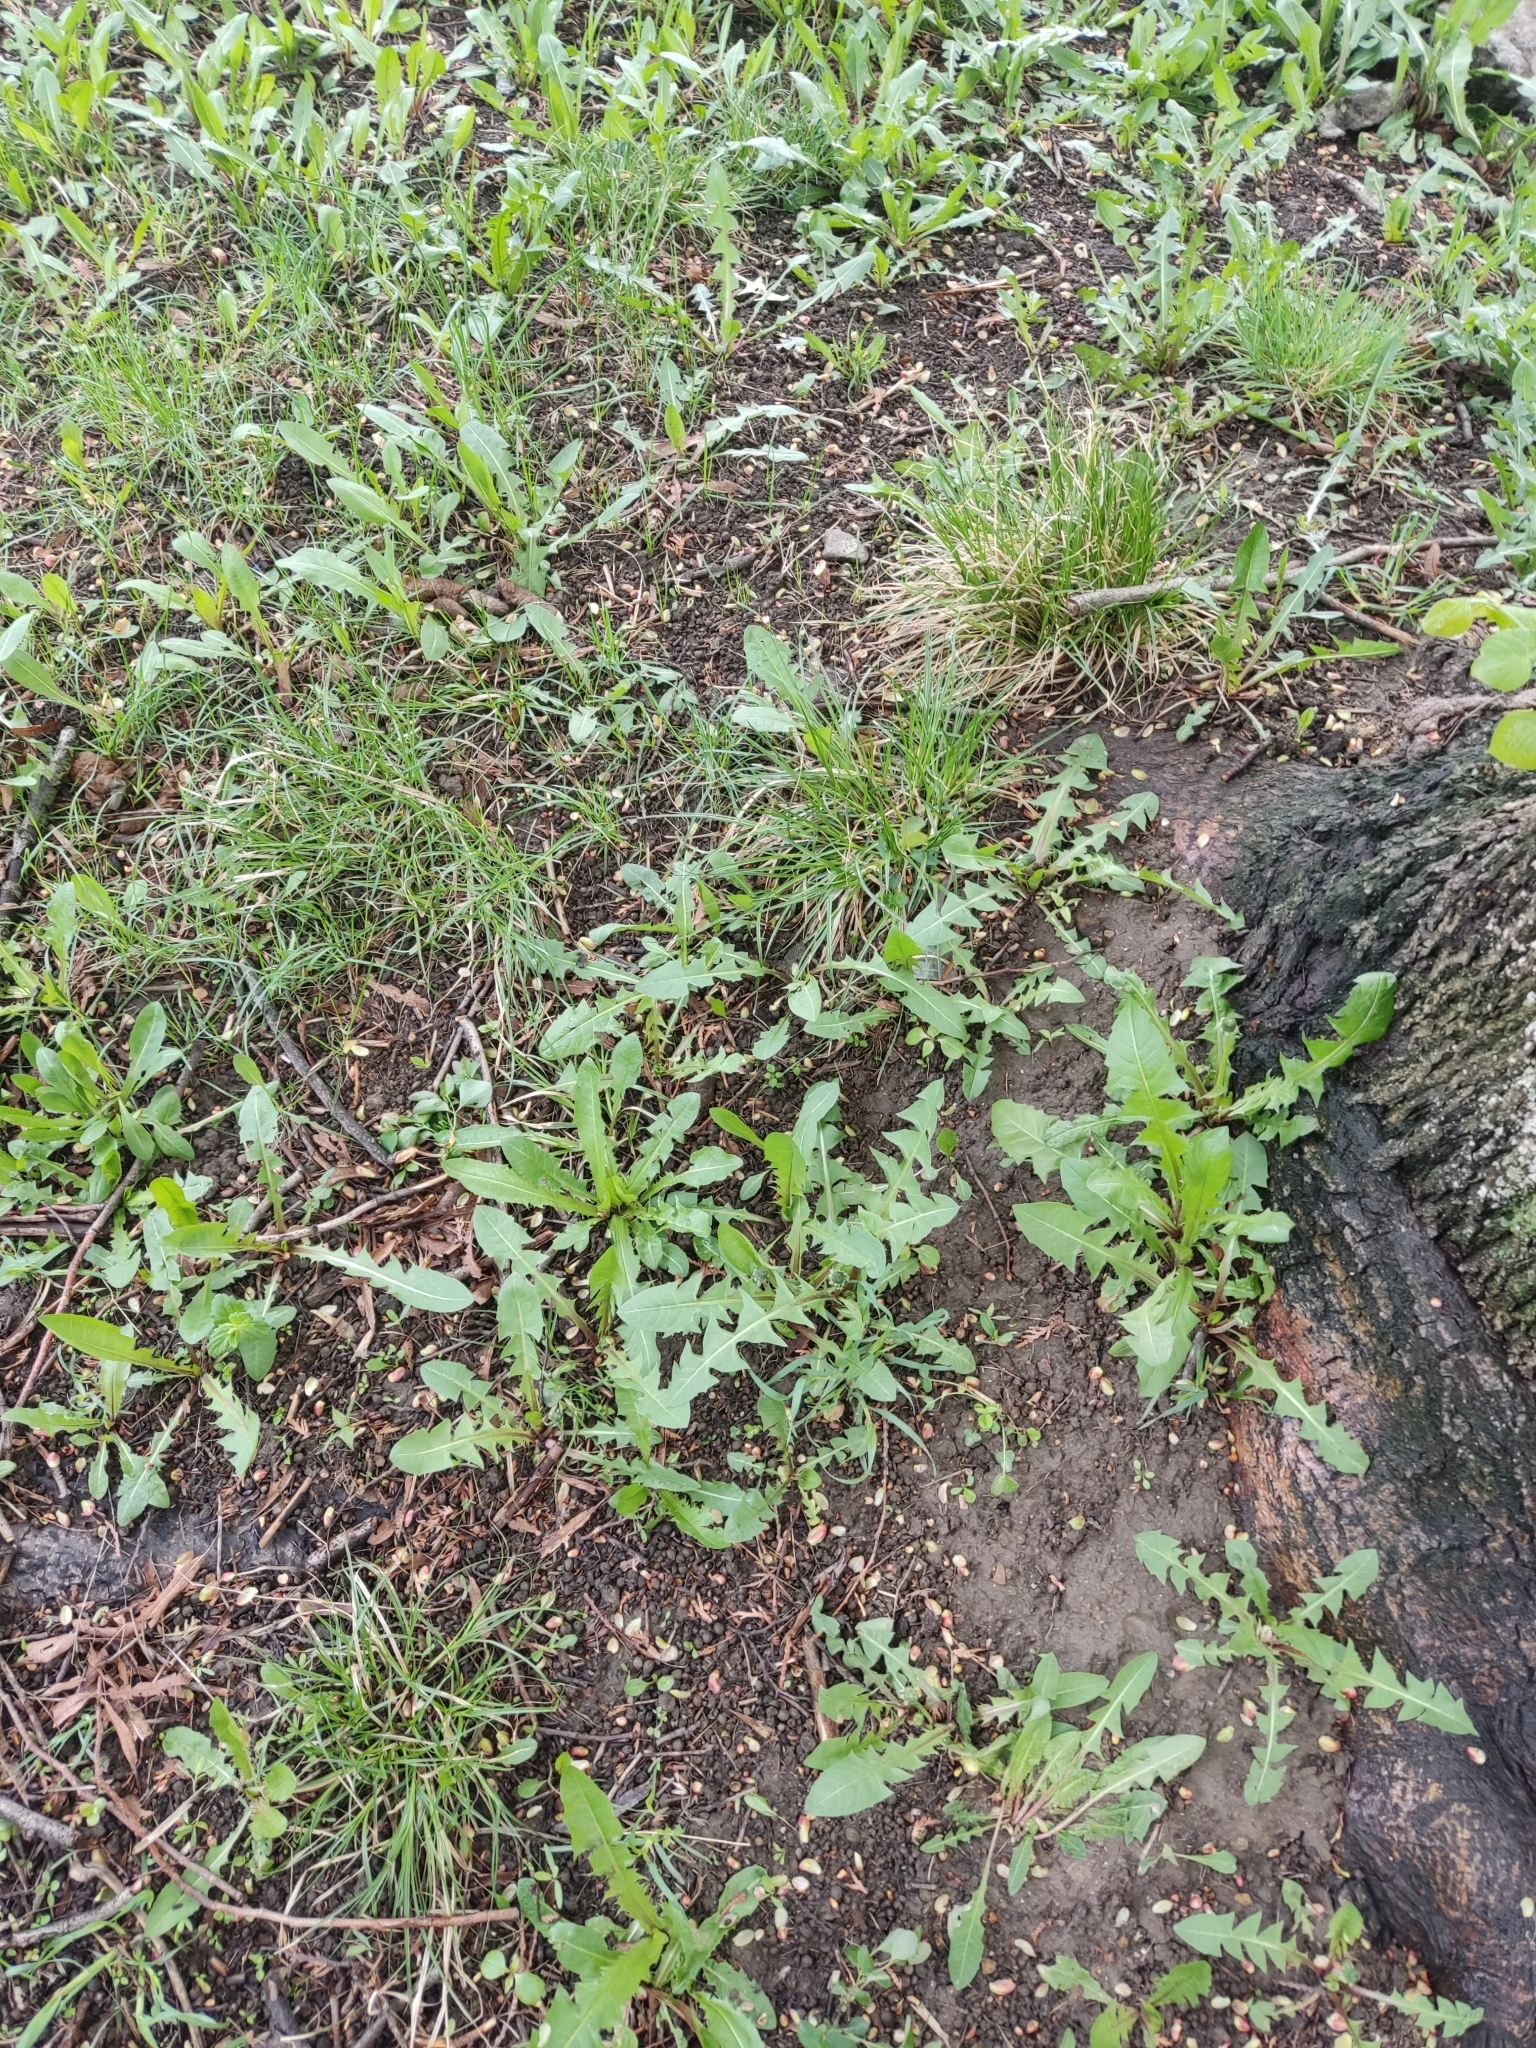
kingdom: Plantae
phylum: Tracheophyta
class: Magnoliopsida
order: Asterales
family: Asteraceae
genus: Taraxacum
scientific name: Taraxacum officinale
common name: Common dandelion
